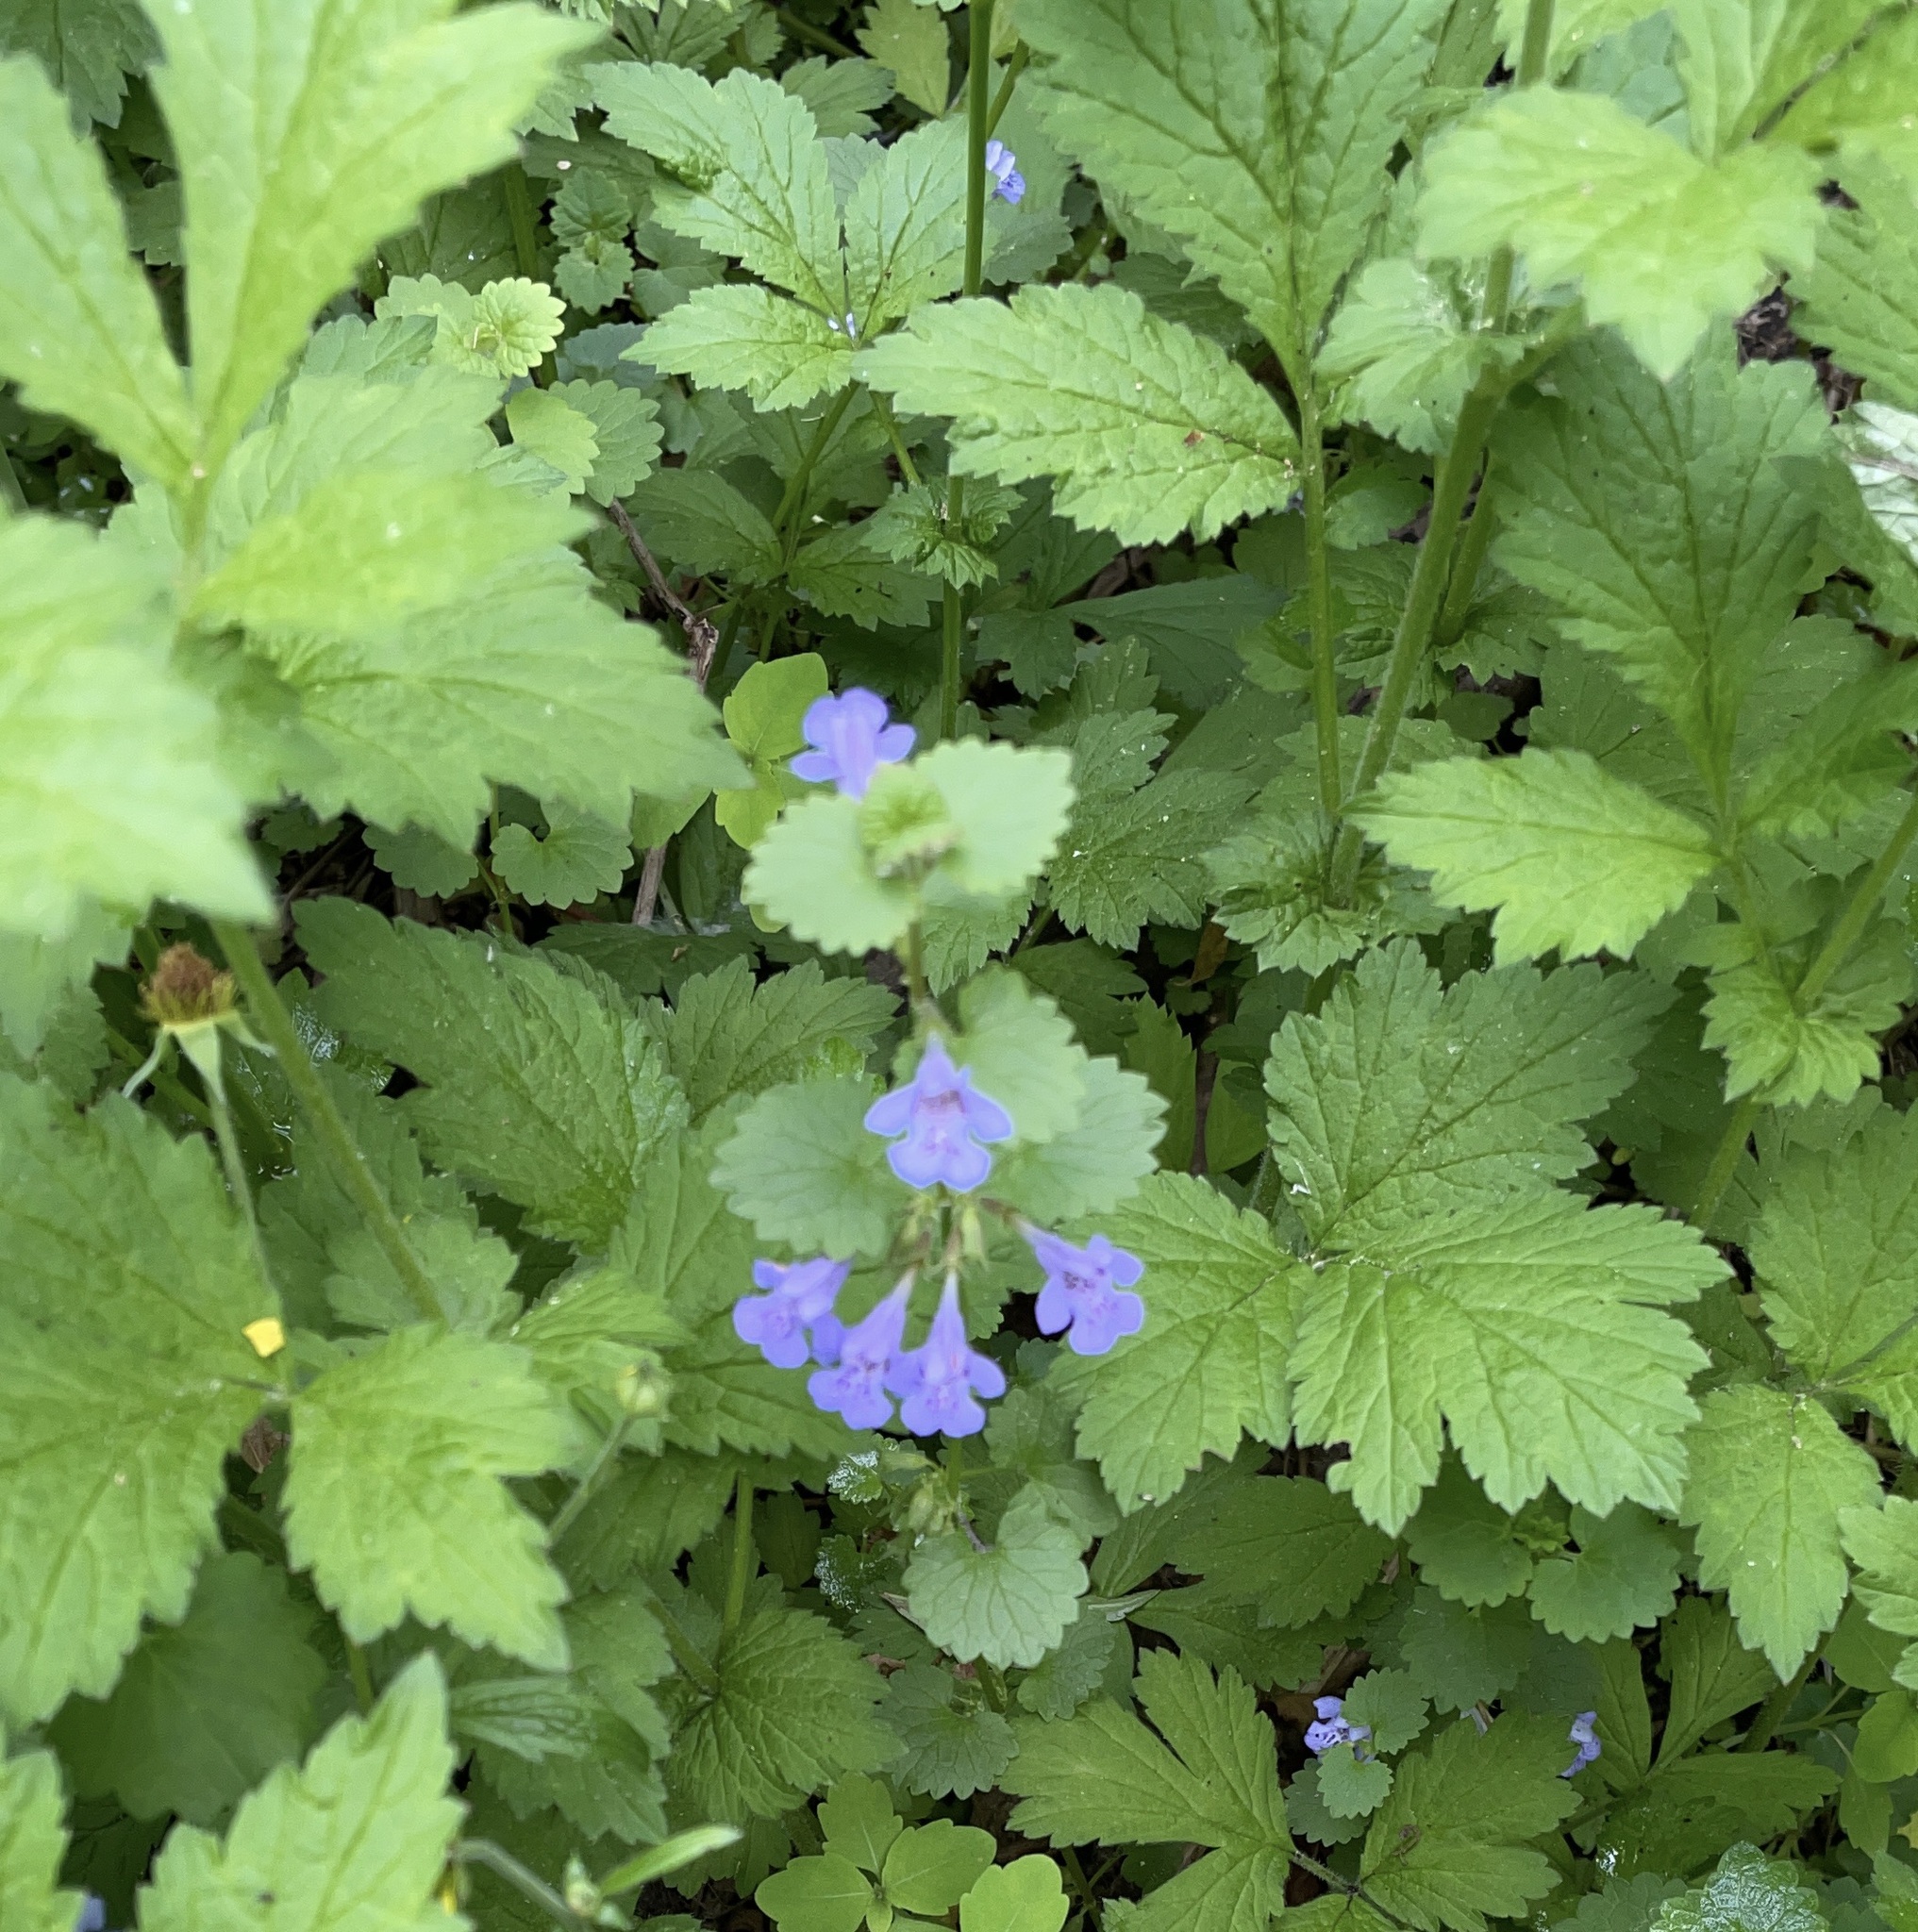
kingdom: Plantae
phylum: Tracheophyta
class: Magnoliopsida
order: Lamiales
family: Lamiaceae
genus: Glechoma
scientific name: Glechoma hederacea
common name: Ground ivy
